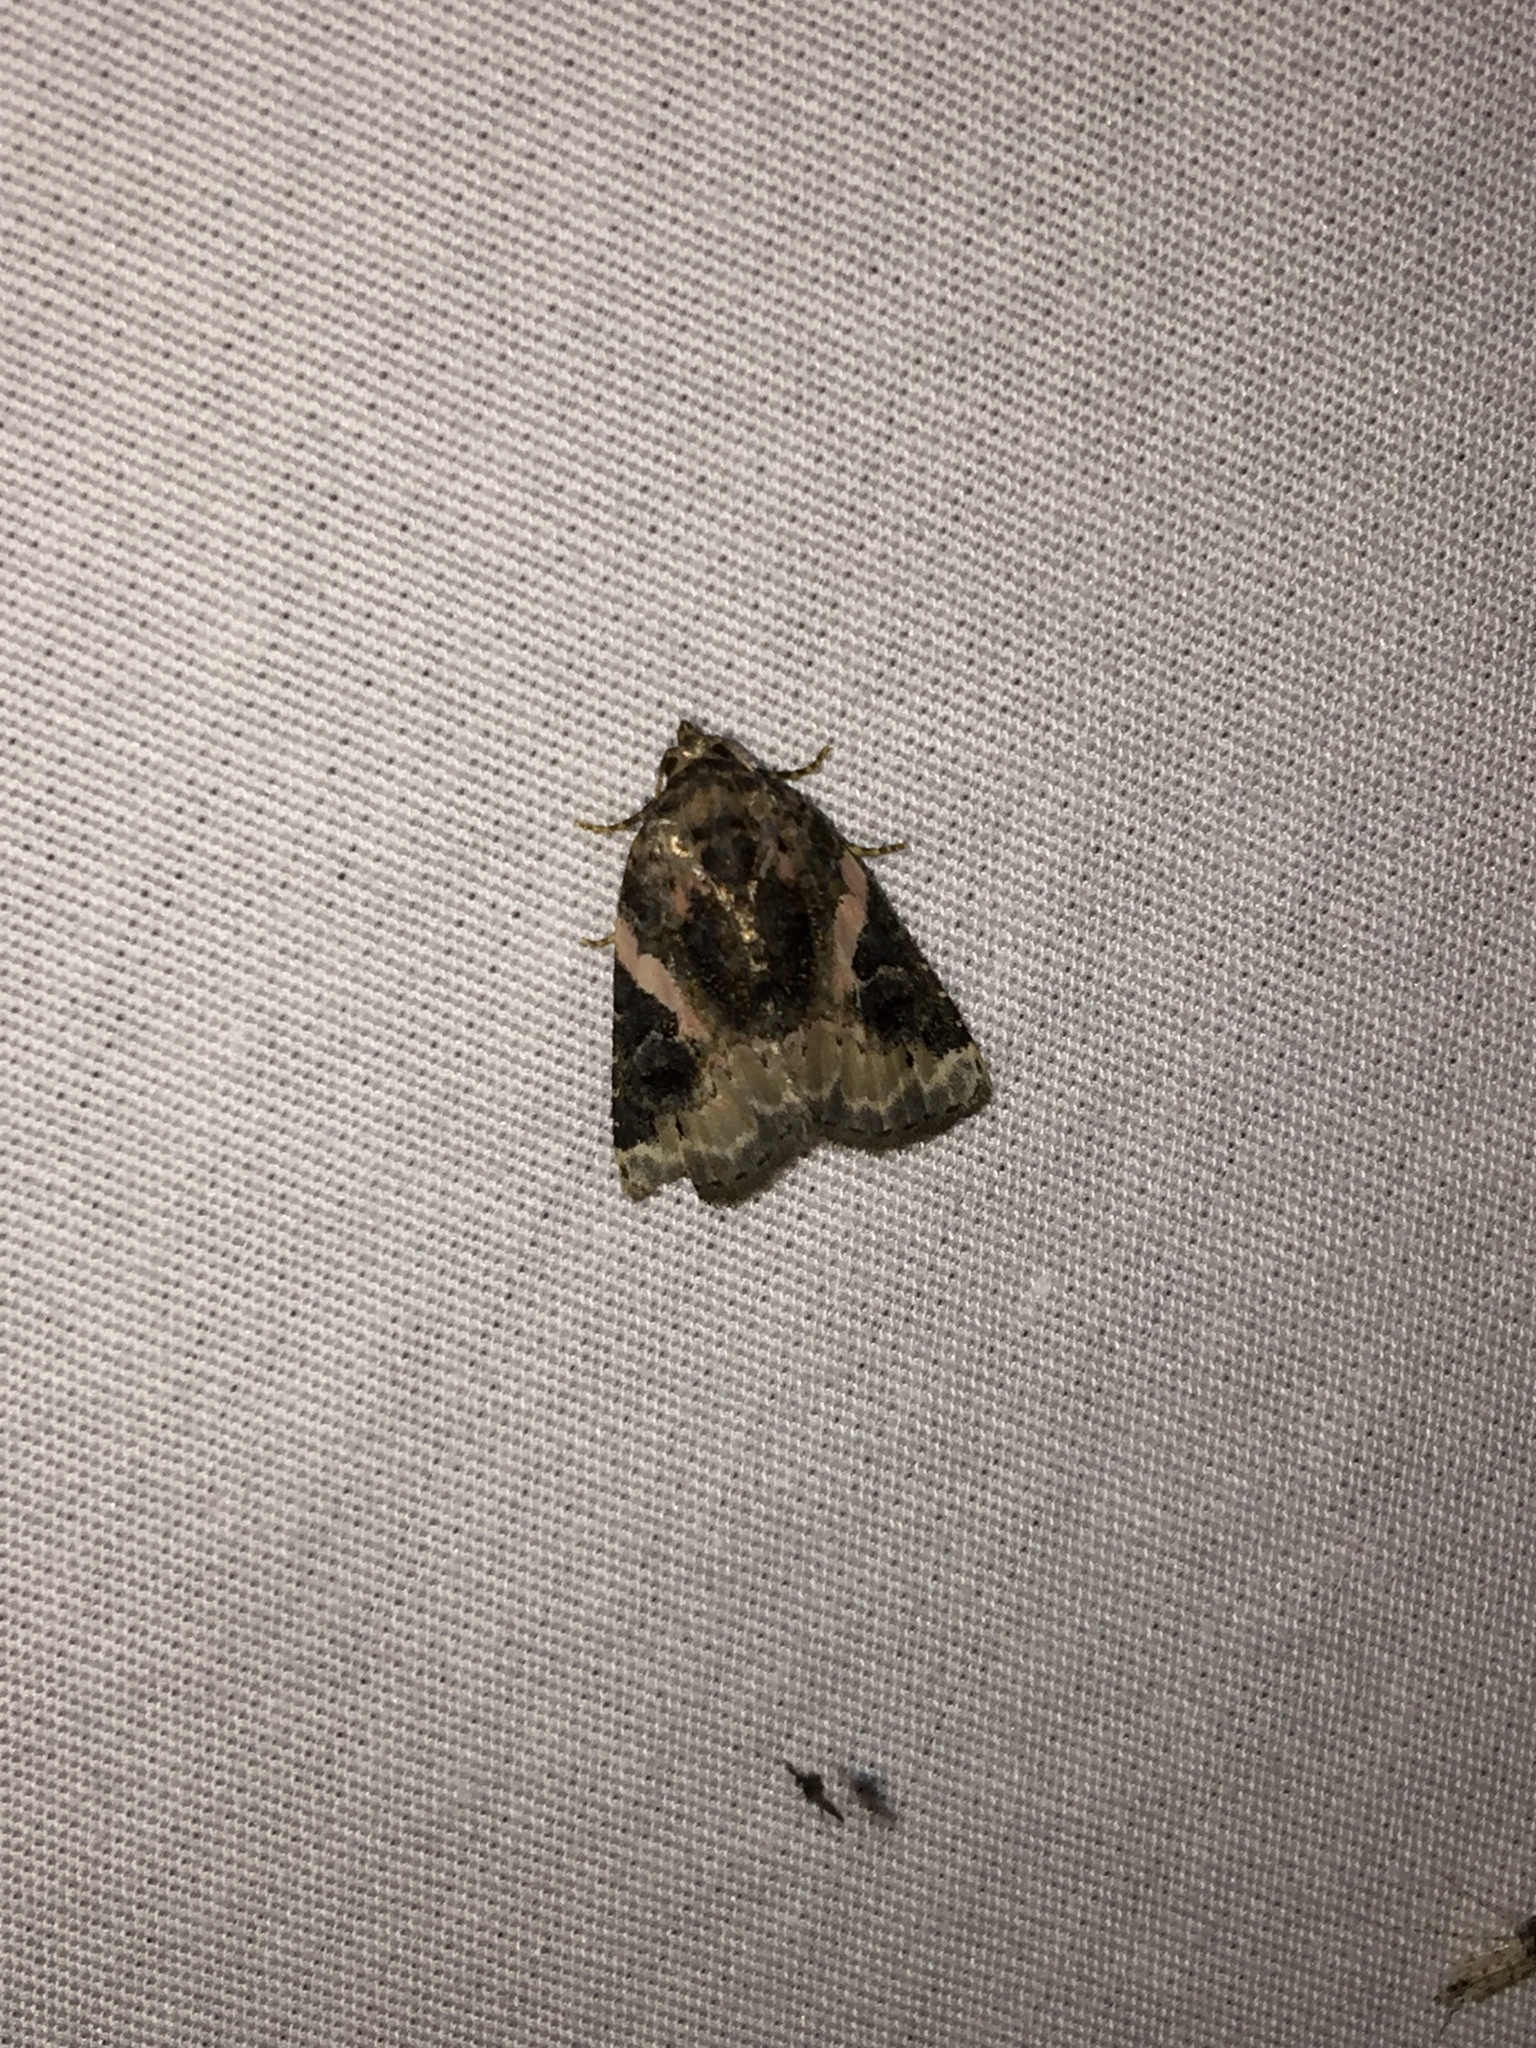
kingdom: Animalia
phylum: Arthropoda
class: Insecta
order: Lepidoptera
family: Noctuidae
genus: Pseudeustrotia
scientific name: Pseudeustrotia carneola
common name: Pink-barred lithacodia moth
